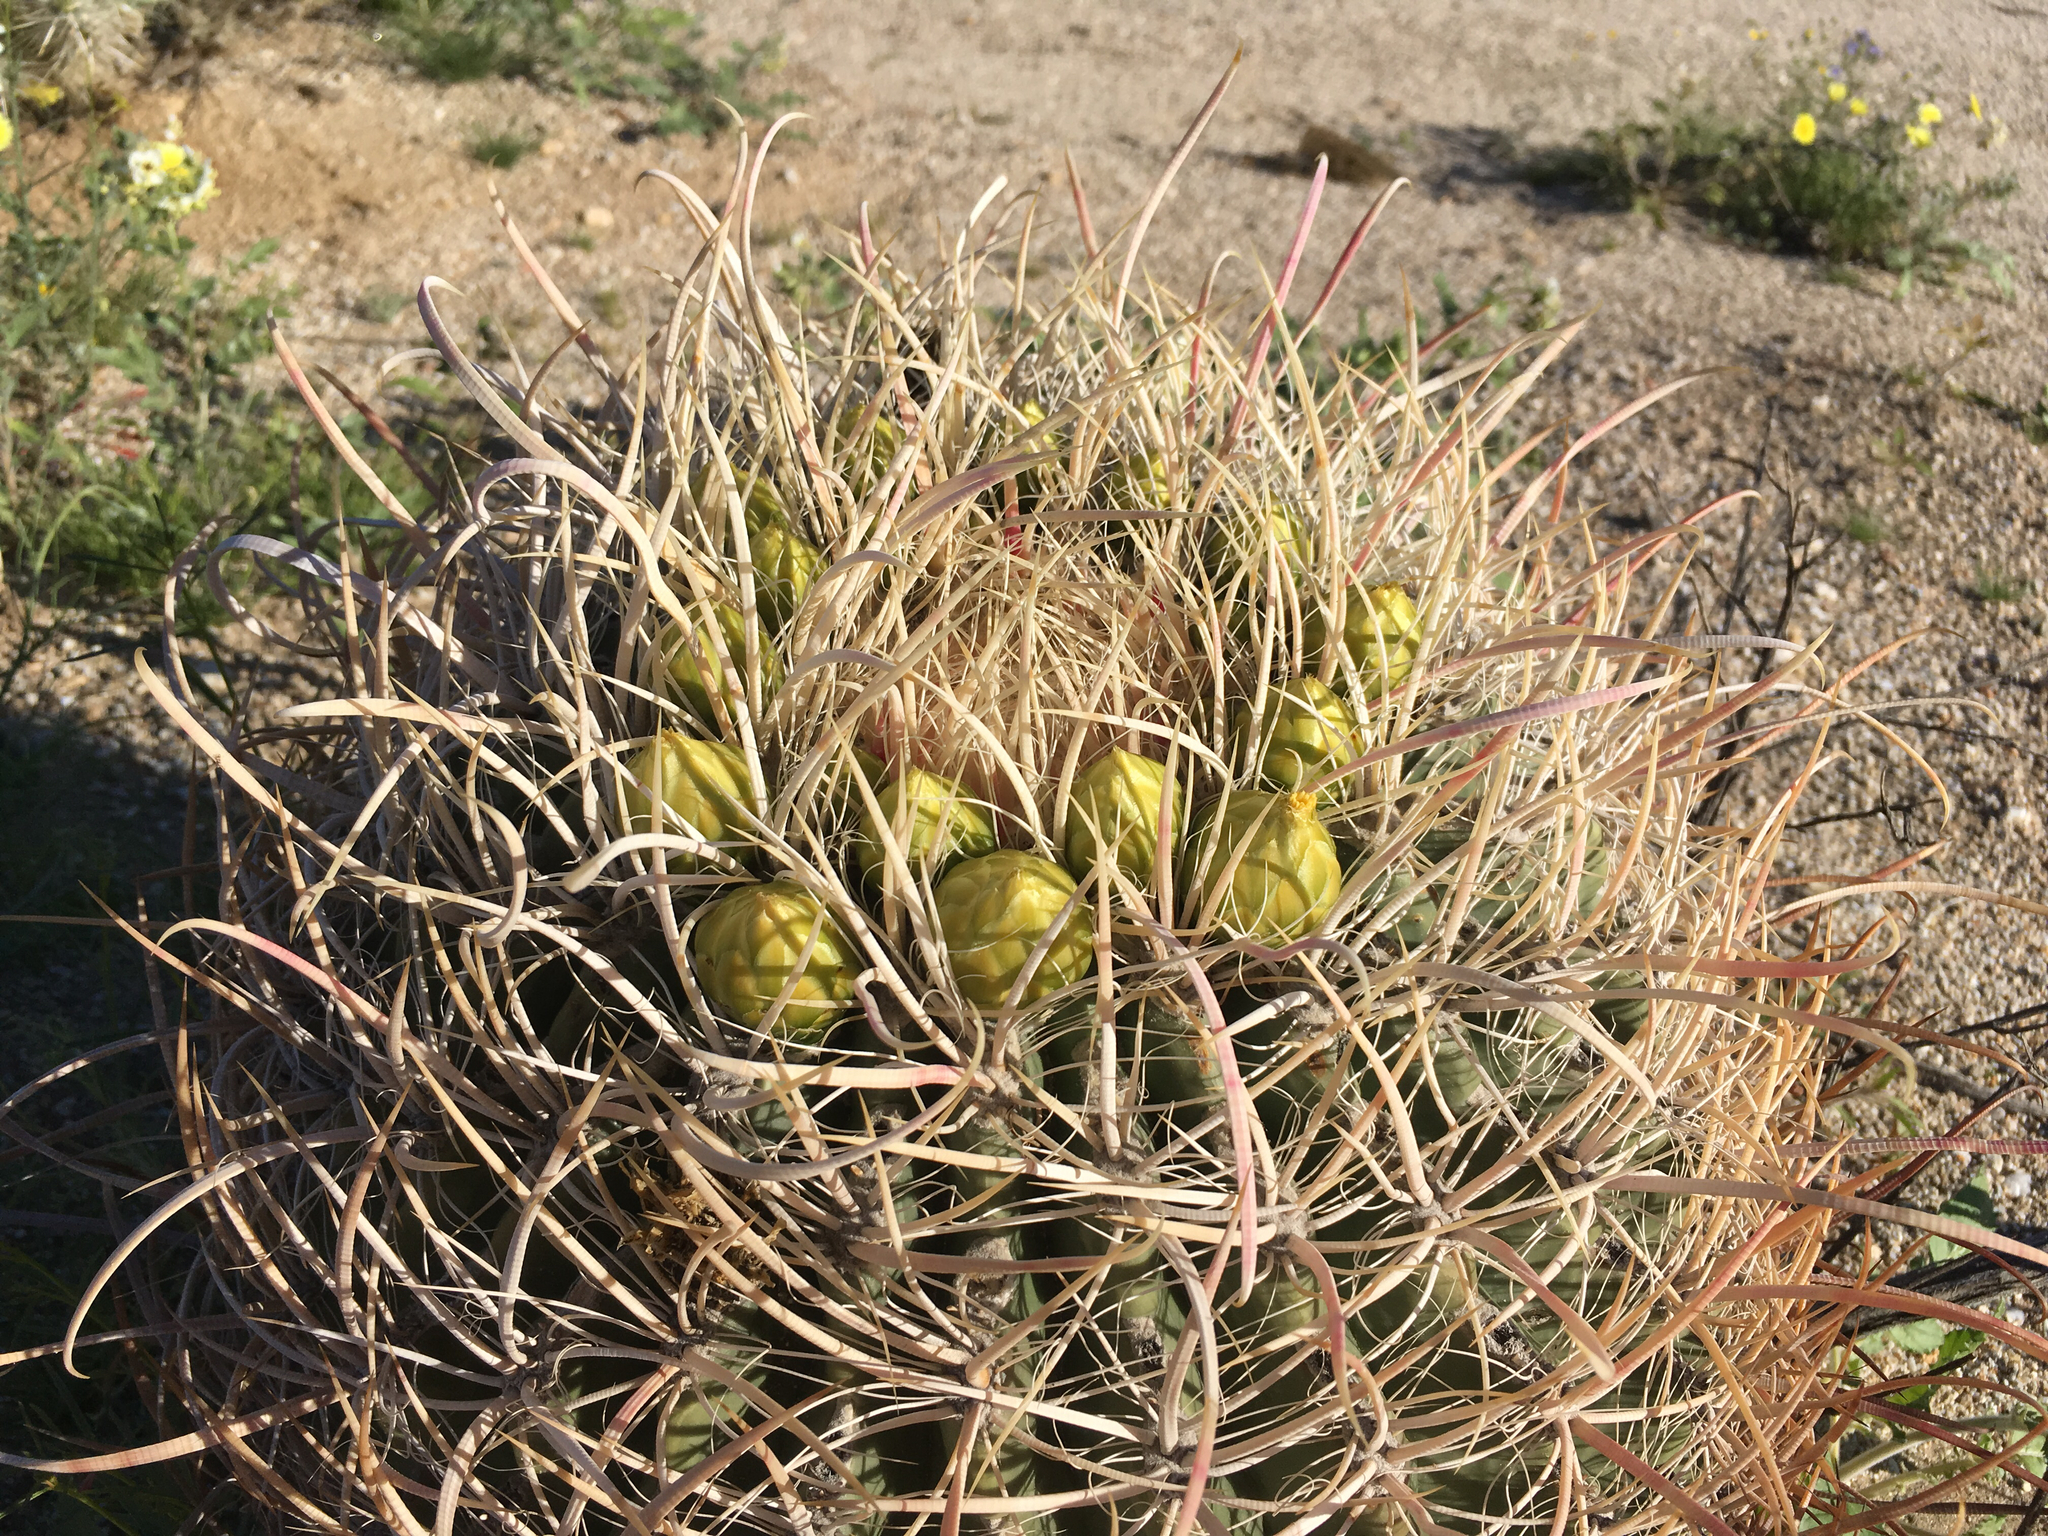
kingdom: Plantae
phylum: Tracheophyta
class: Magnoliopsida
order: Caryophyllales
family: Cactaceae
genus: Ferocactus
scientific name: Ferocactus cylindraceus
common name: California barrel cactus
